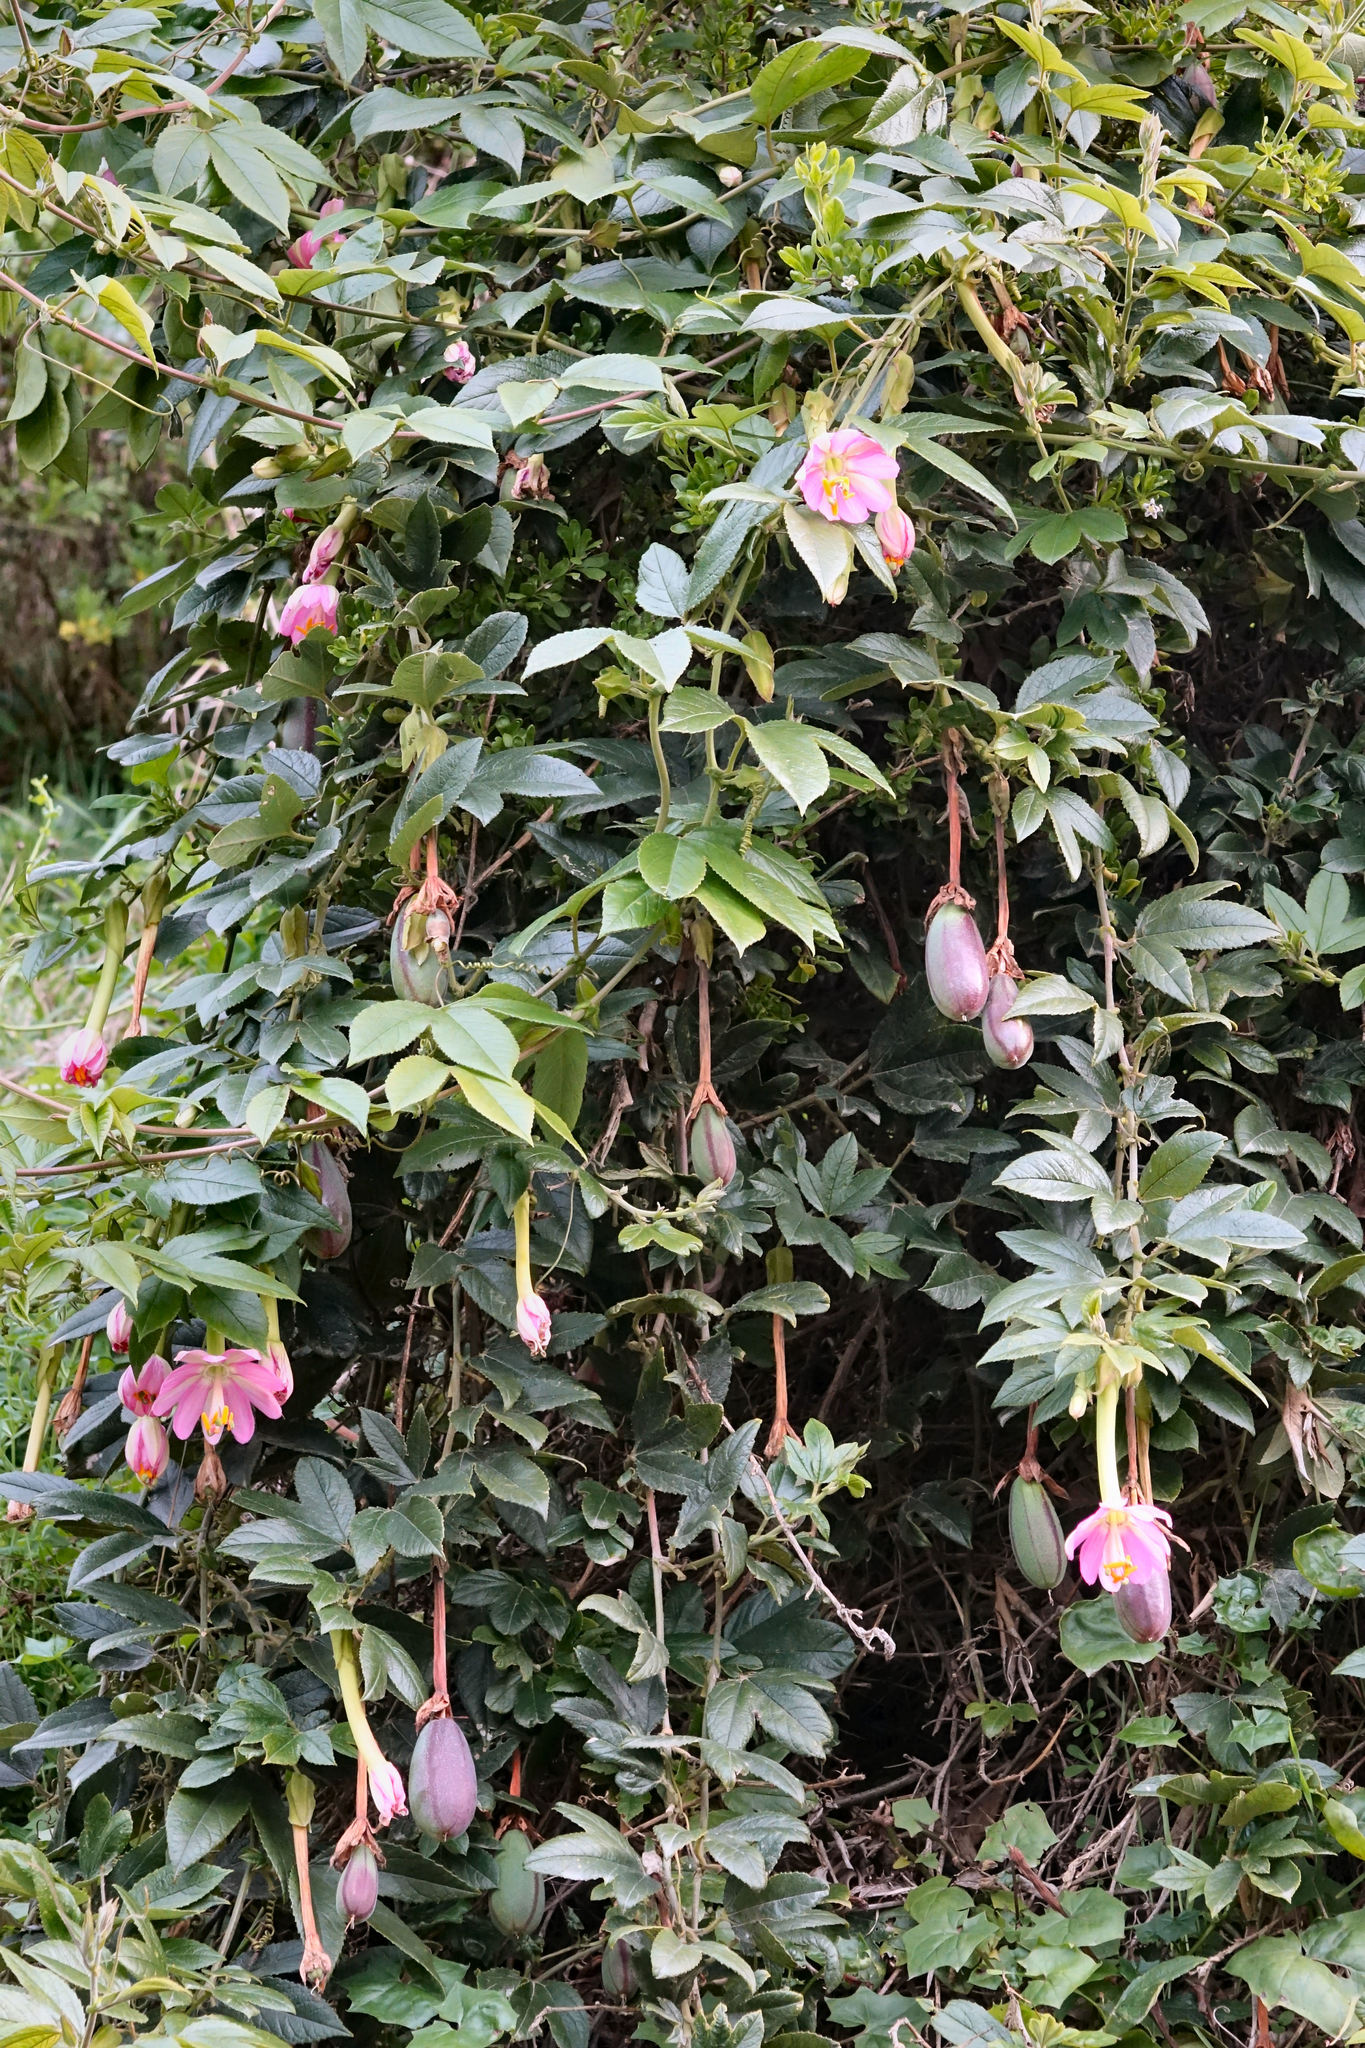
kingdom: Plantae
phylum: Tracheophyta
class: Magnoliopsida
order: Malpighiales
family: Passifloraceae
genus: Passiflora
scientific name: Passiflora tripartita
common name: Banana poka
